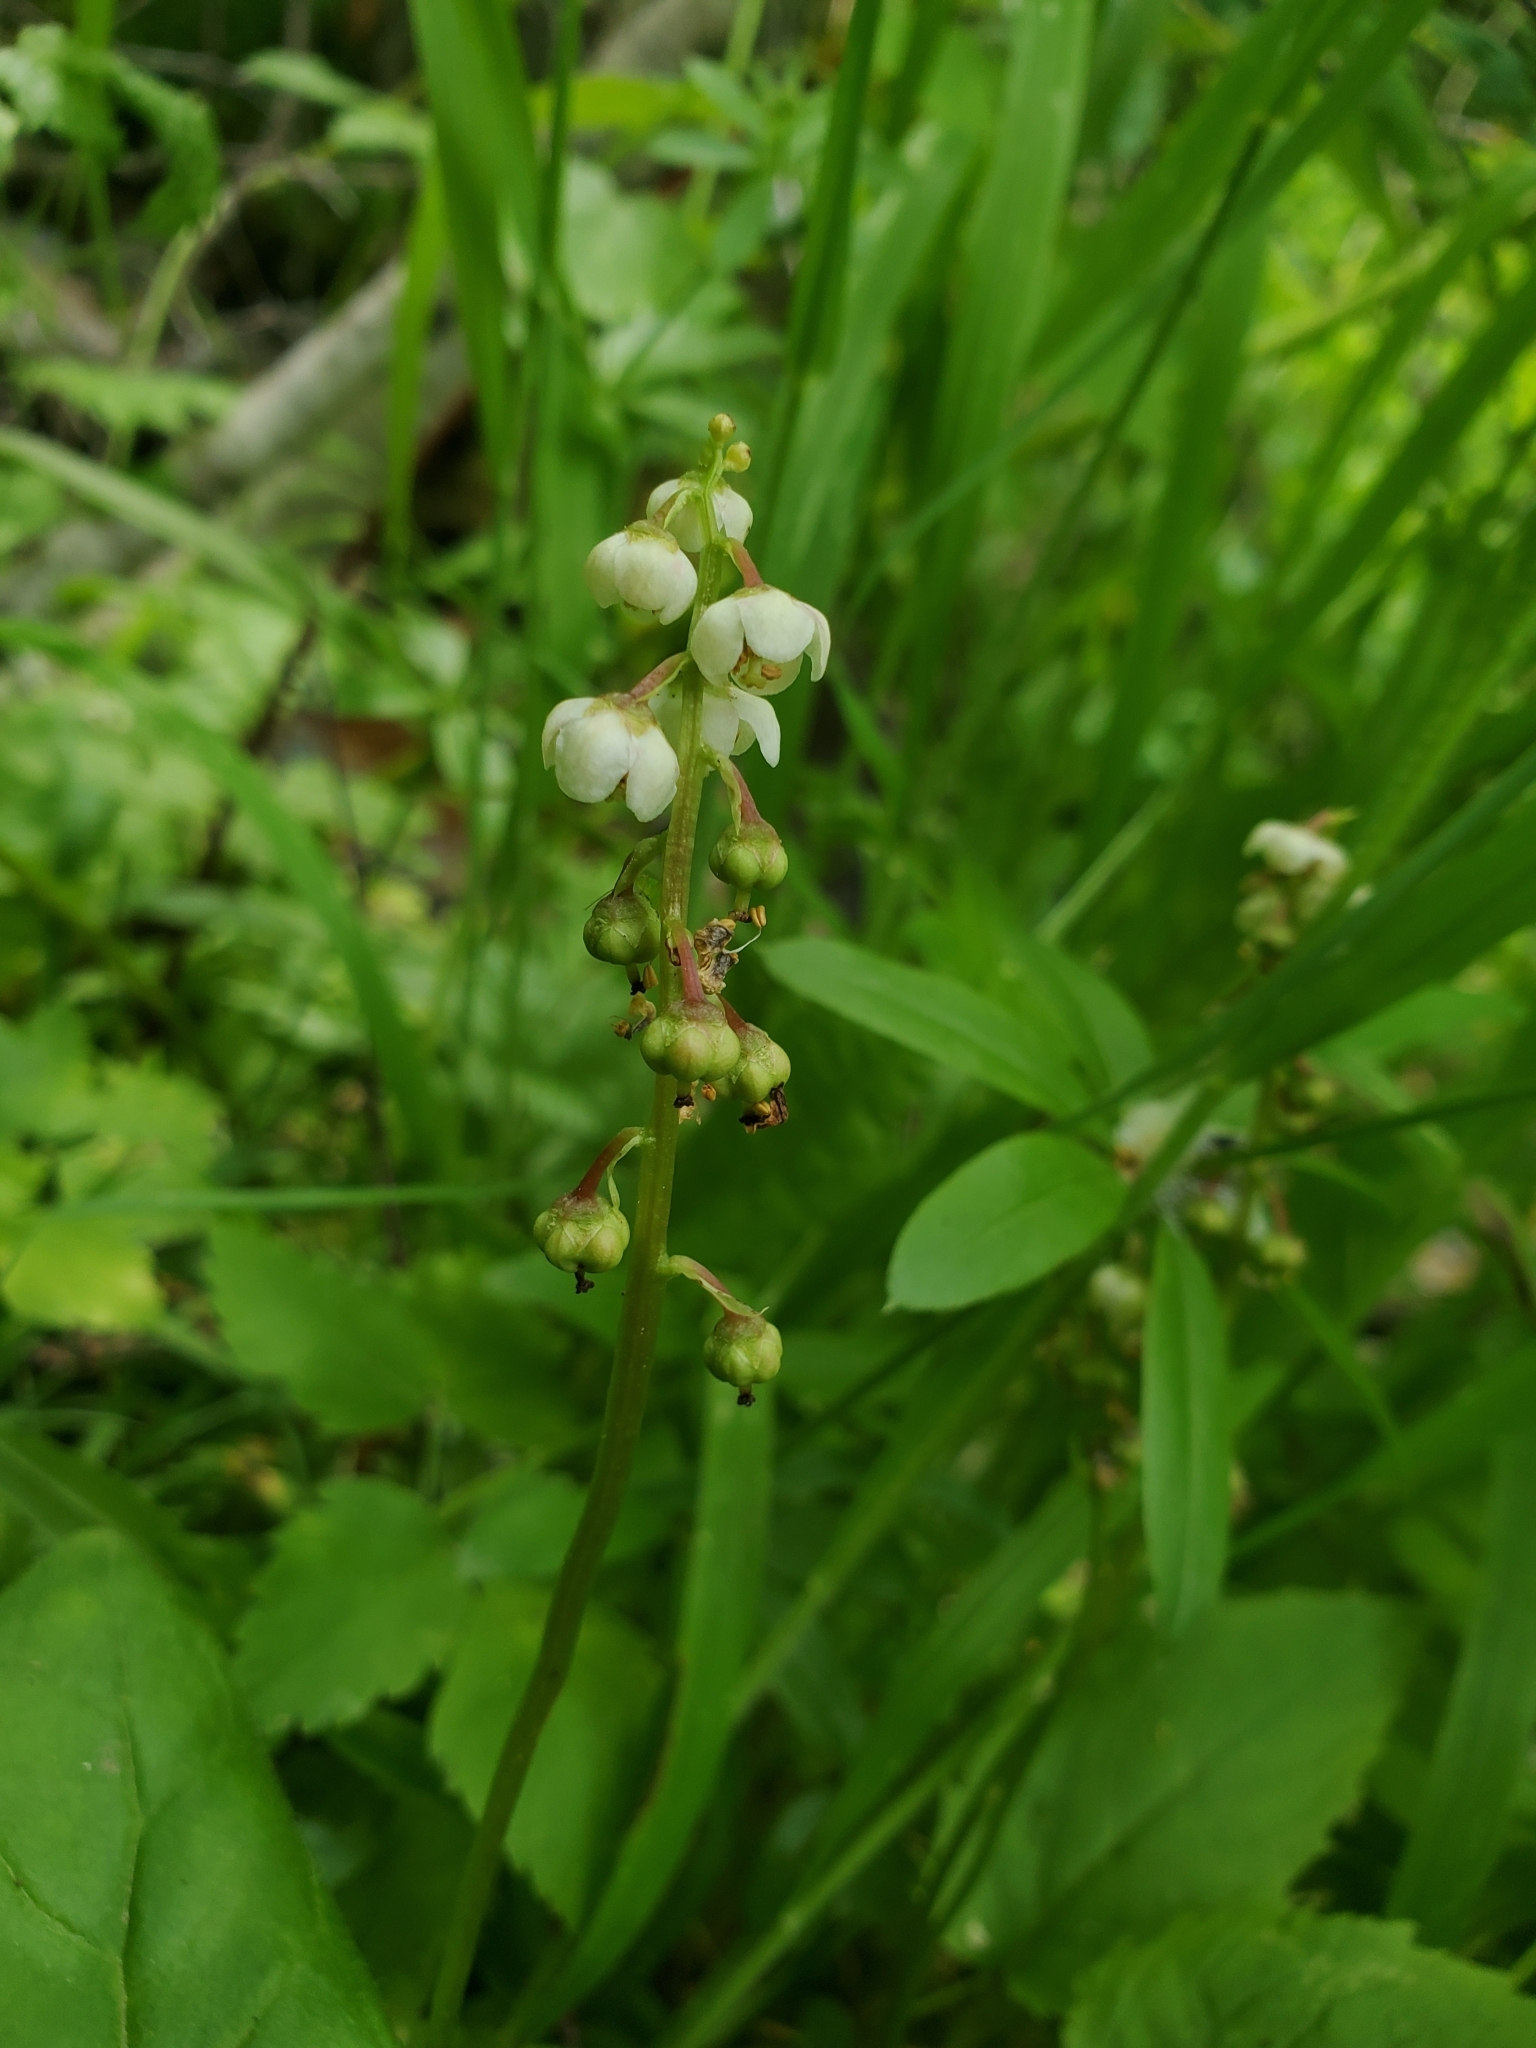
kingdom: Plantae
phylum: Tracheophyta
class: Magnoliopsida
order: Ericales
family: Ericaceae
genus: Pyrola
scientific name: Pyrola minor
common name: Common wintergreen
